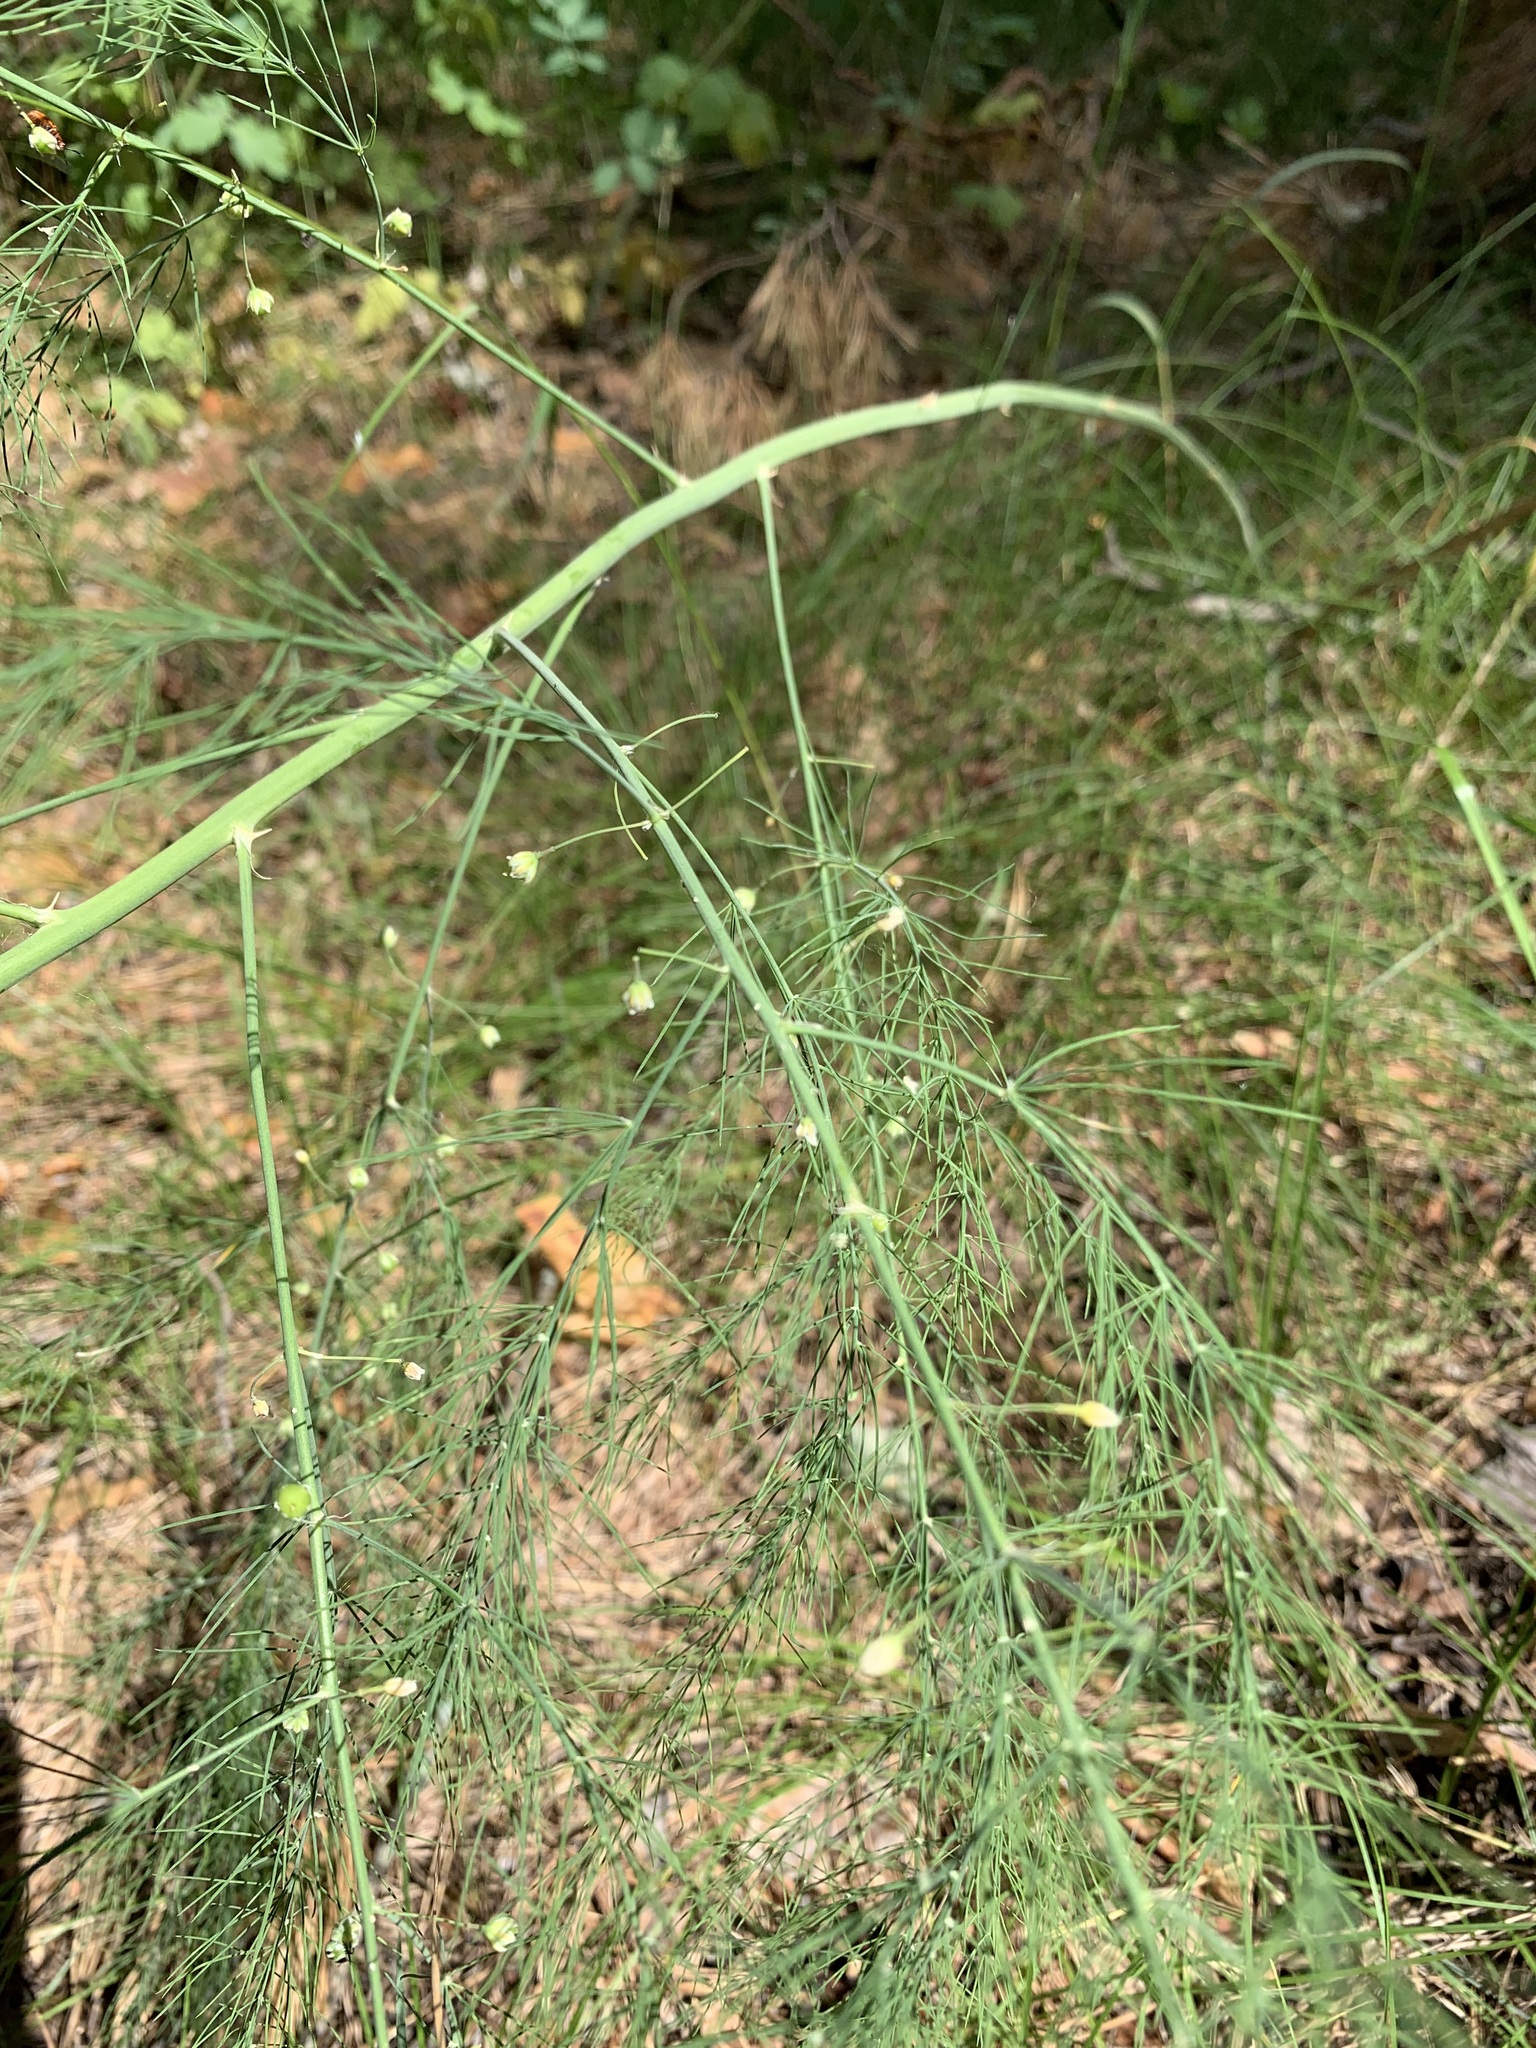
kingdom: Plantae
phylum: Tracheophyta
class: Liliopsida
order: Asparagales
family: Asparagaceae
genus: Asparagus
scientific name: Asparagus officinalis
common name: Garden asparagus
